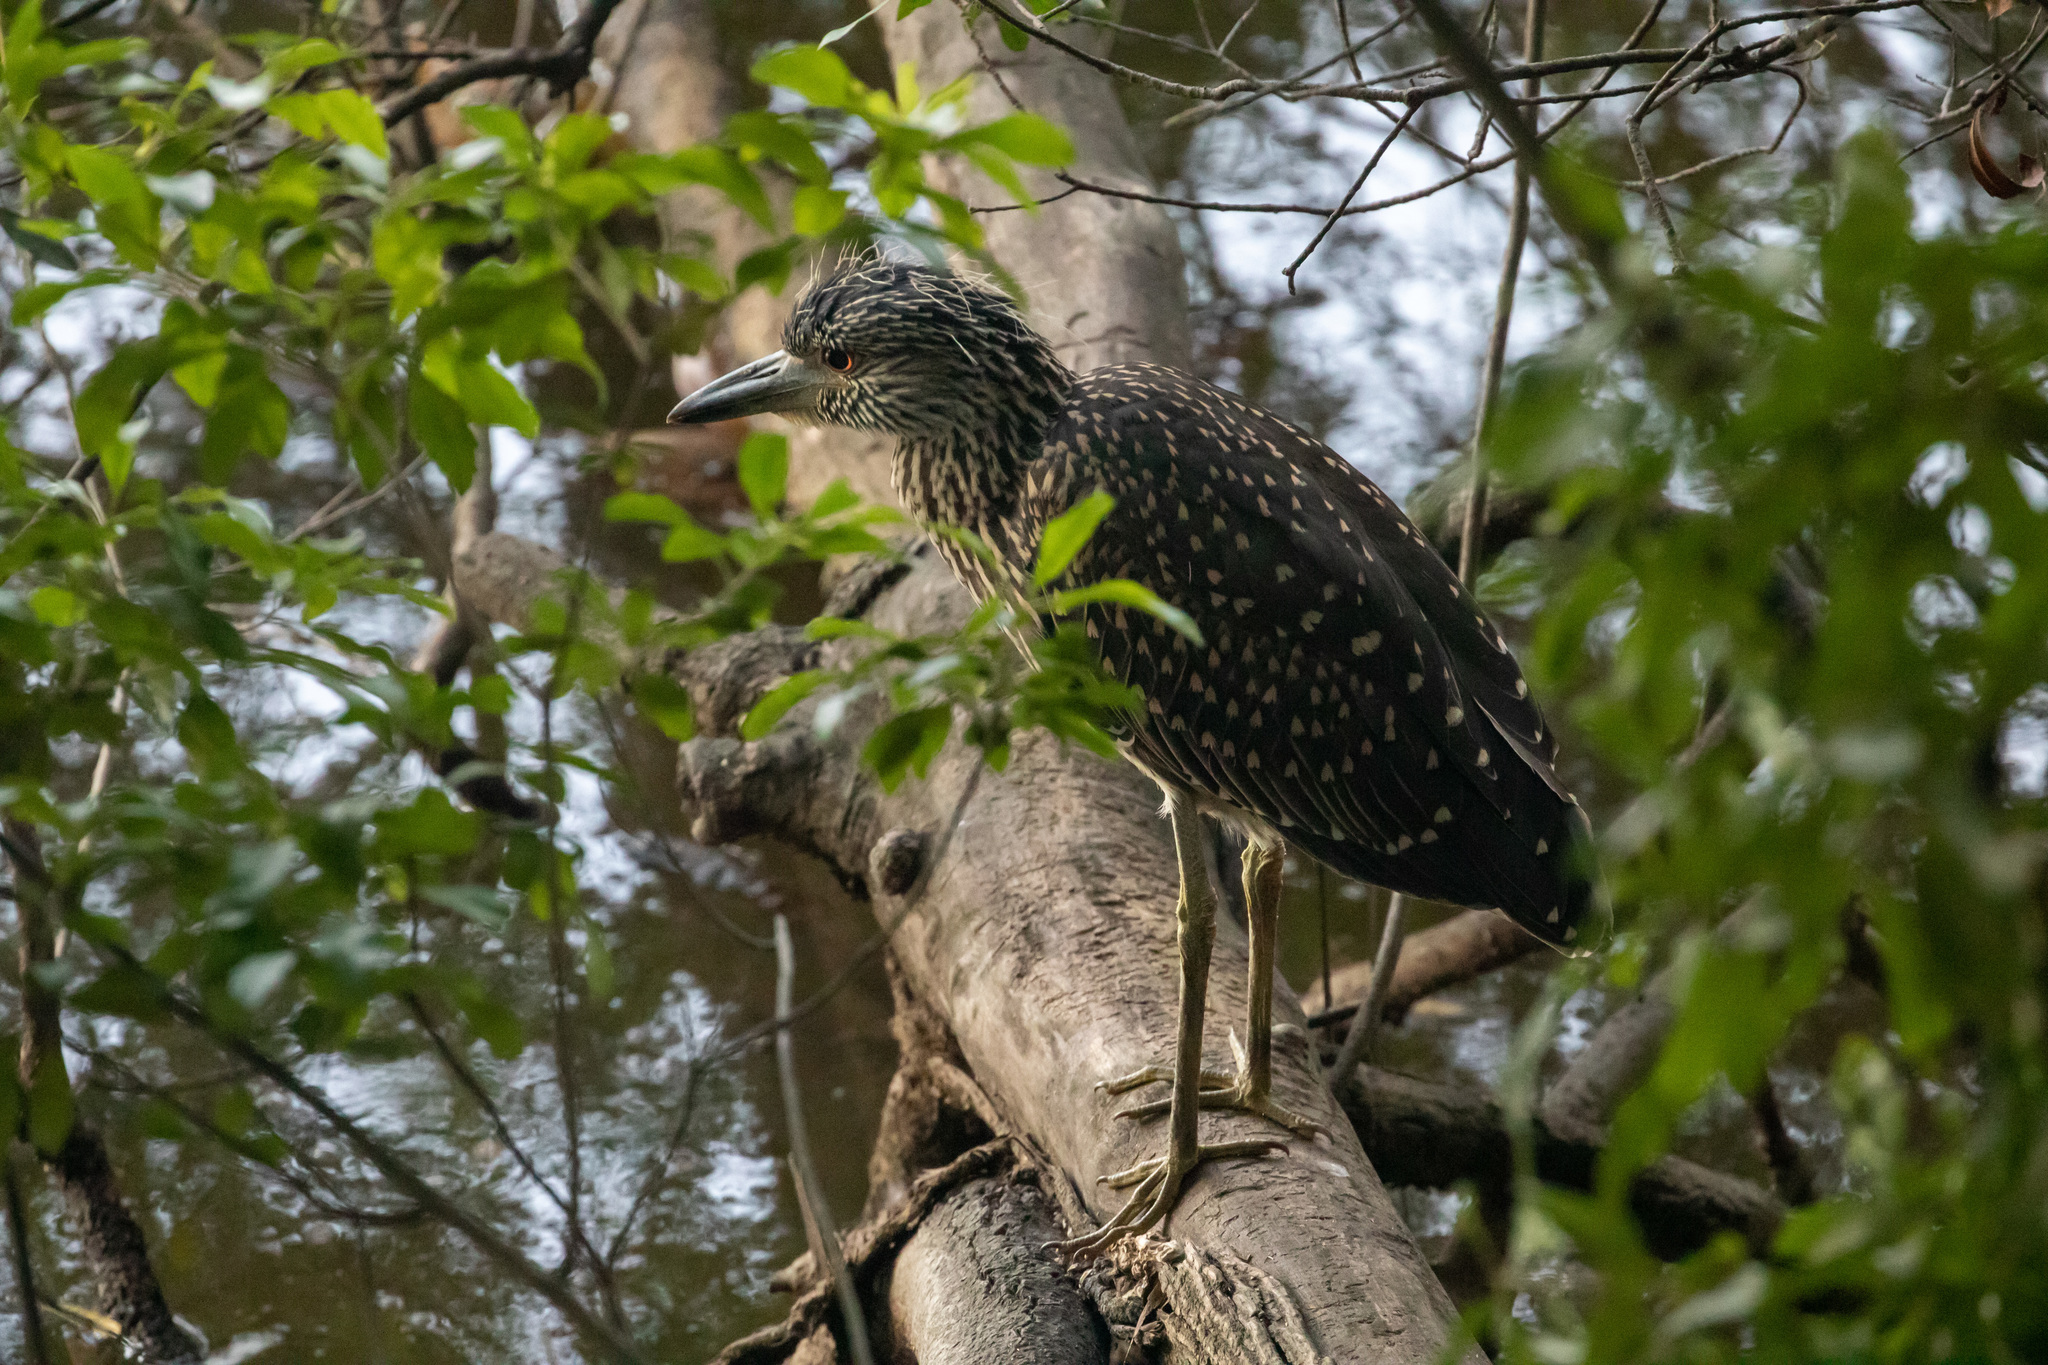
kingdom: Animalia
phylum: Chordata
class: Aves
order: Pelecaniformes
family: Ardeidae
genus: Nyctanassa
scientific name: Nyctanassa violacea
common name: Yellow-crowned night heron
